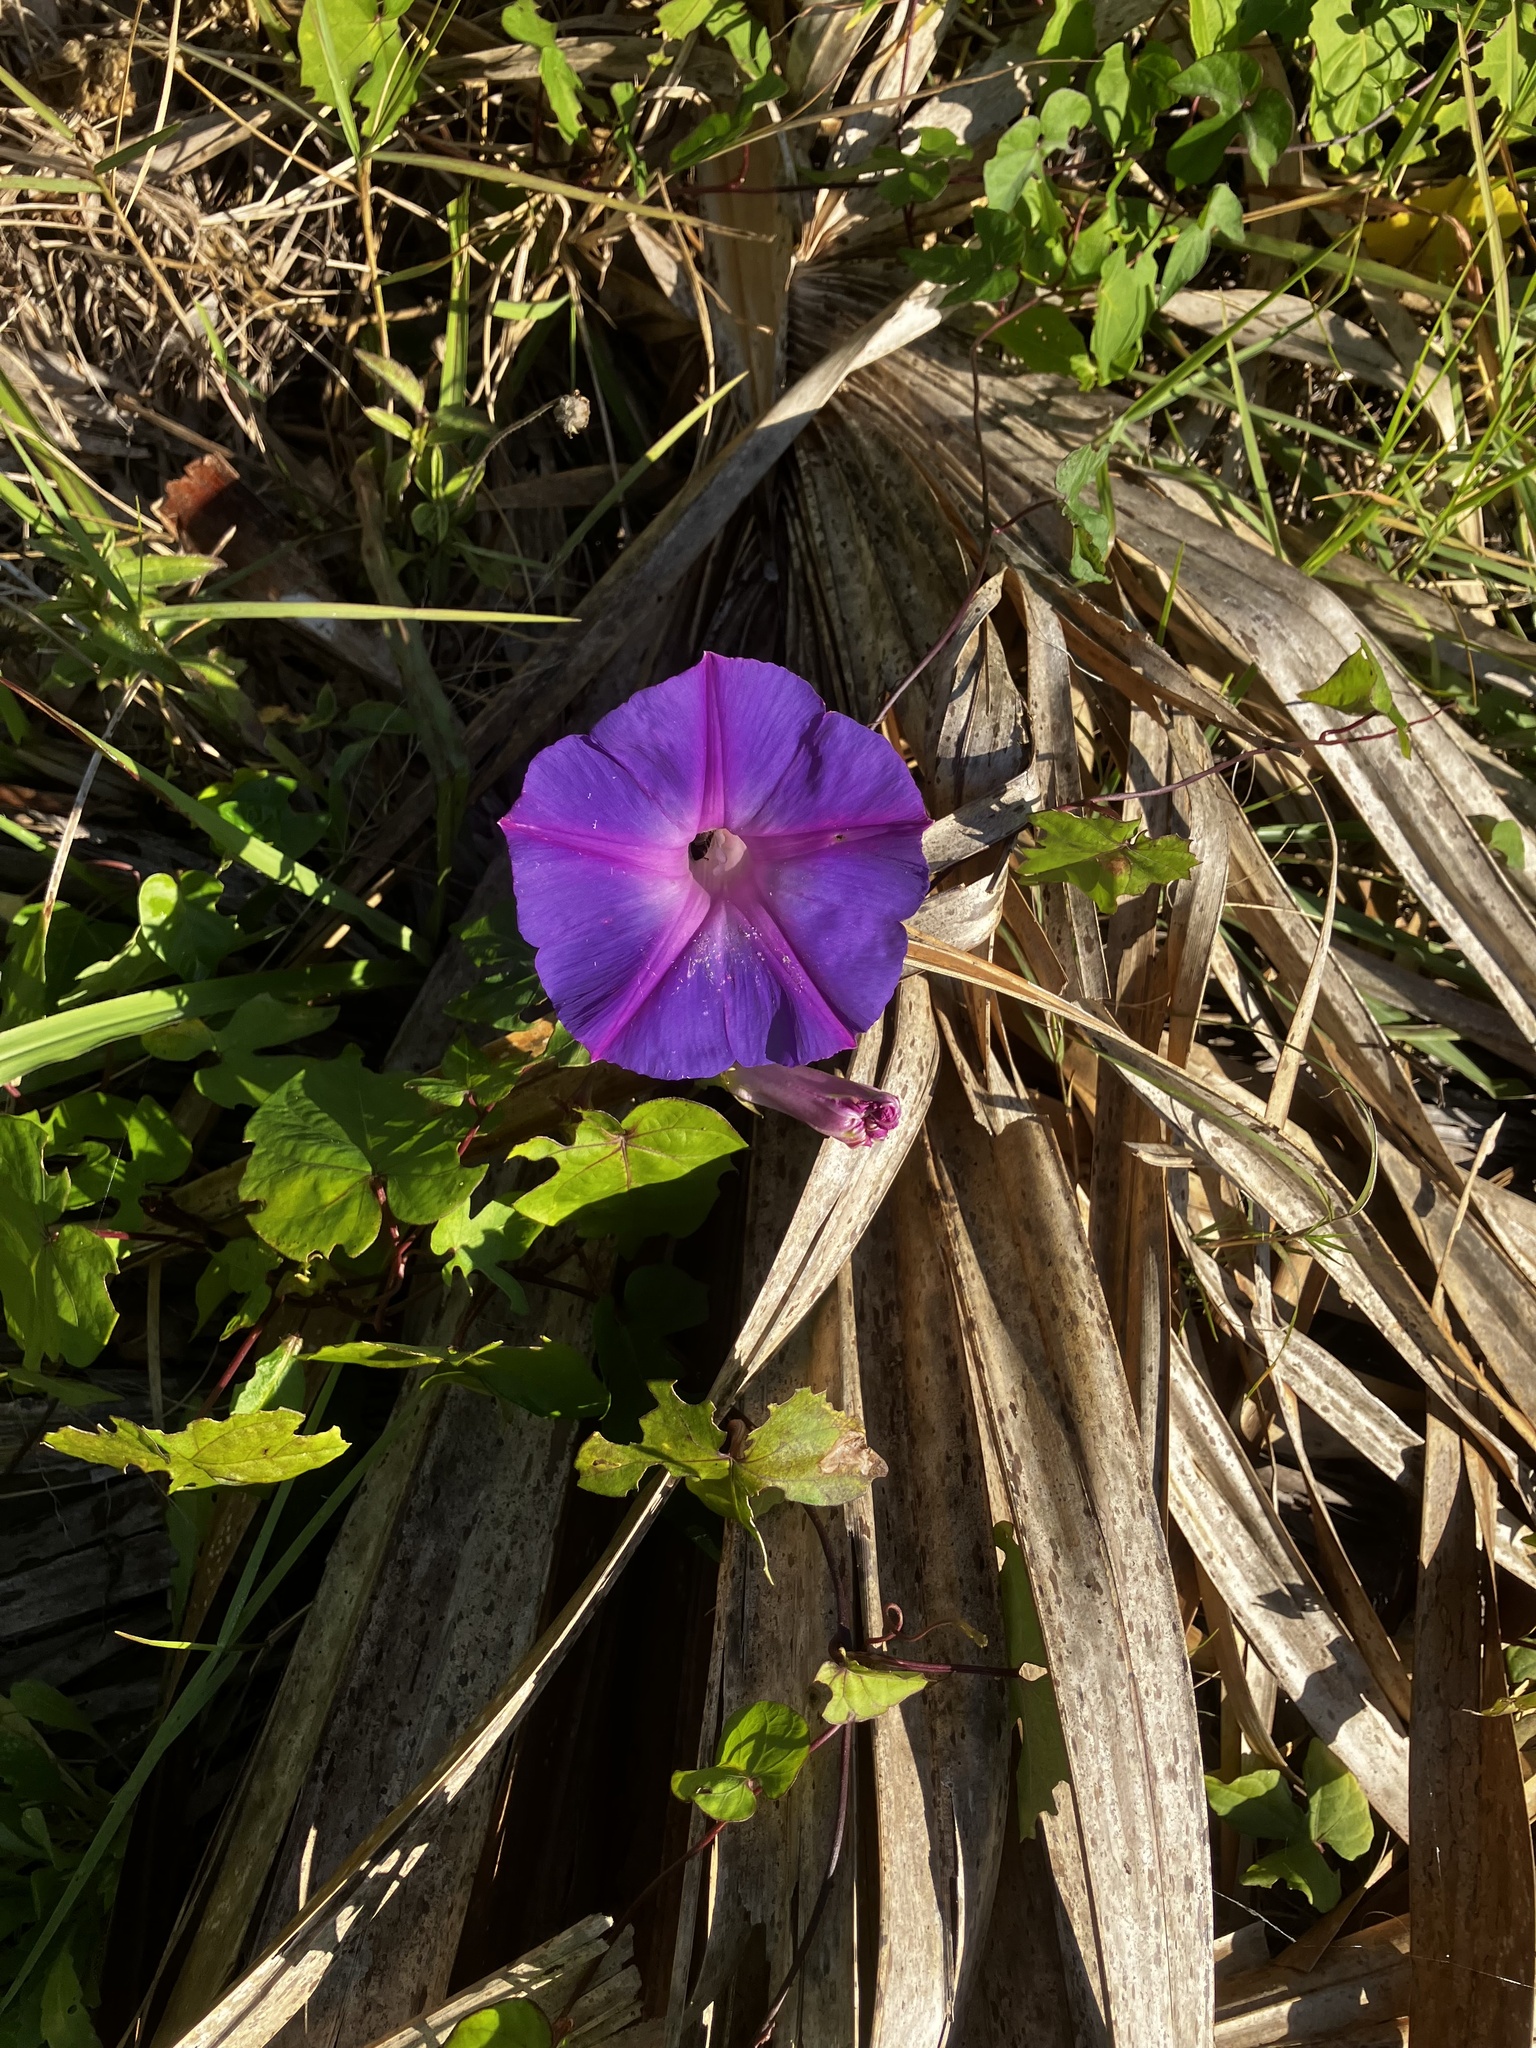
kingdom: Plantae
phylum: Tracheophyta
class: Magnoliopsida
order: Solanales
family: Convolvulaceae
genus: Ipomoea
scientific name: Ipomoea indica
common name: Blue dawnflower
